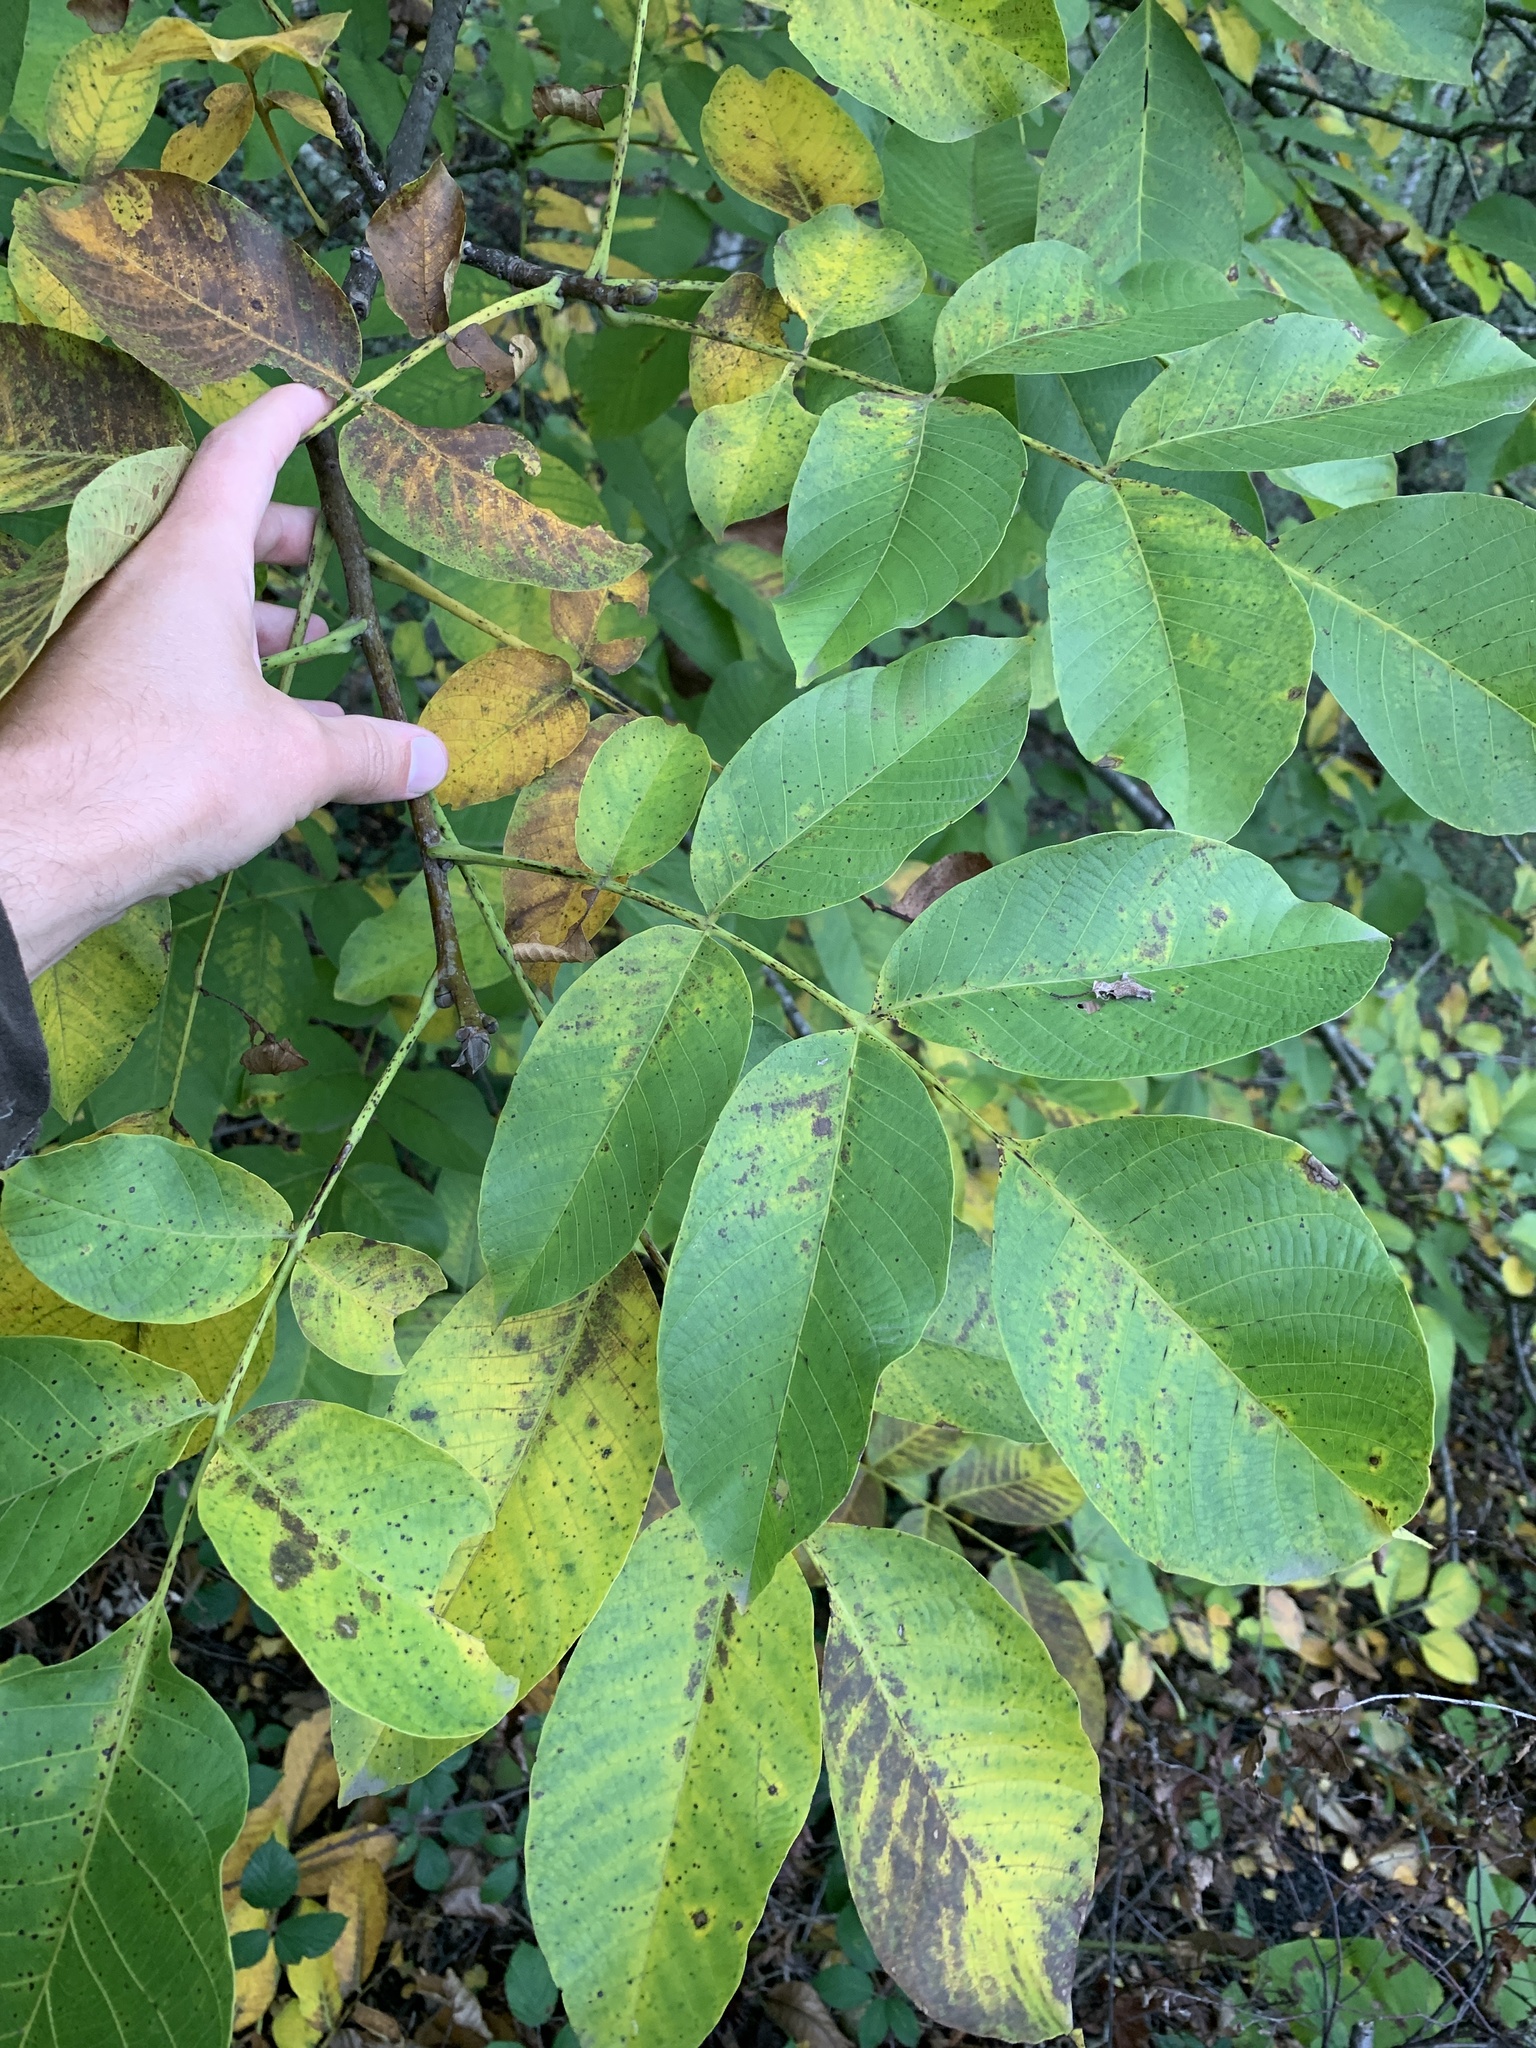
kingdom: Plantae
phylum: Tracheophyta
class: Magnoliopsida
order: Fagales
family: Juglandaceae
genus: Juglans
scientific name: Juglans regia
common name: Walnut
